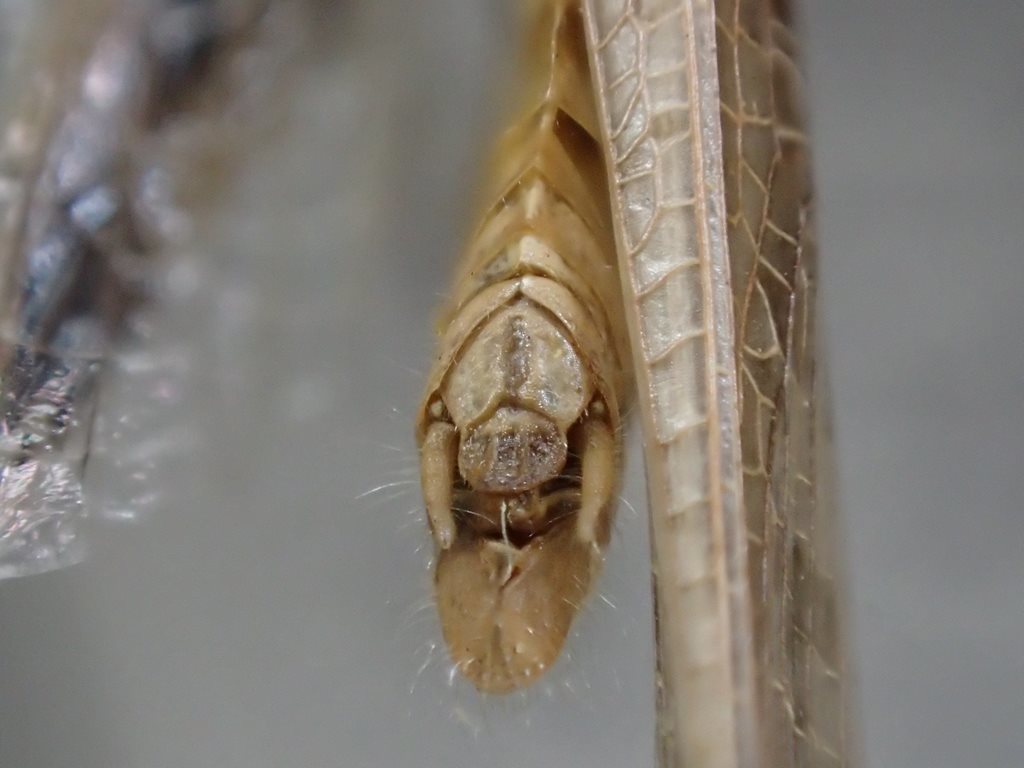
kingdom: Animalia
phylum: Arthropoda
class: Insecta
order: Orthoptera
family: Acrididae
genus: Aiolopus
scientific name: Aiolopus thalassinus
